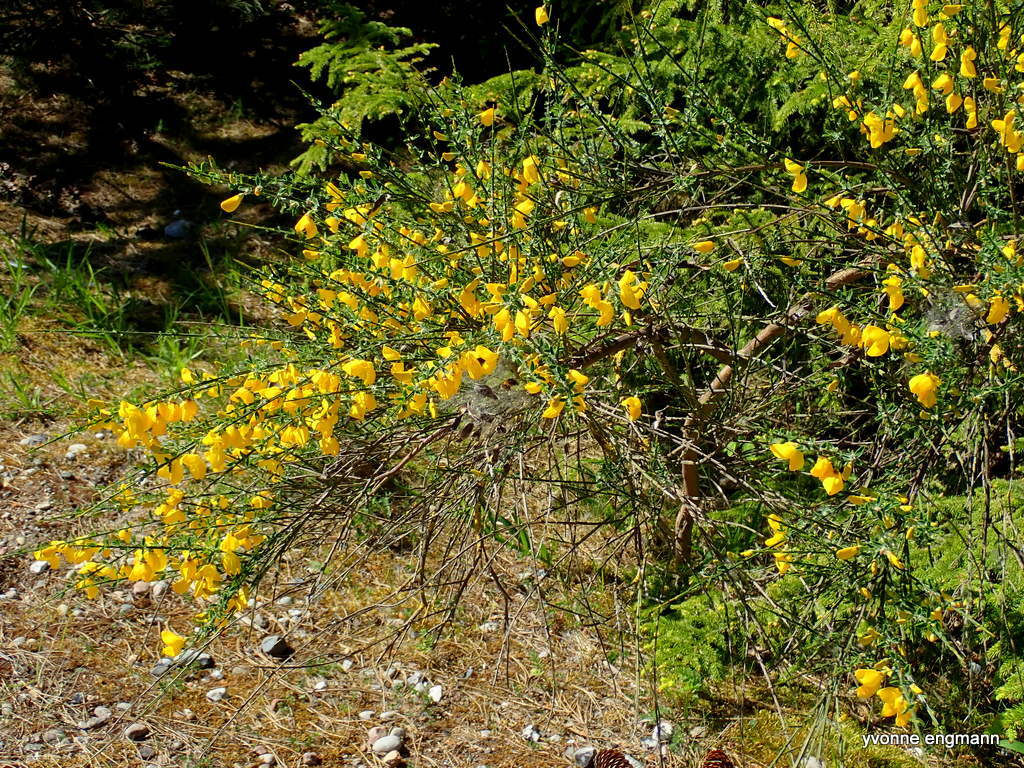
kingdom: Plantae
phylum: Tracheophyta
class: Magnoliopsida
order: Fabales
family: Fabaceae
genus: Cytisus
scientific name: Cytisus scoparius
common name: Scotch broom
